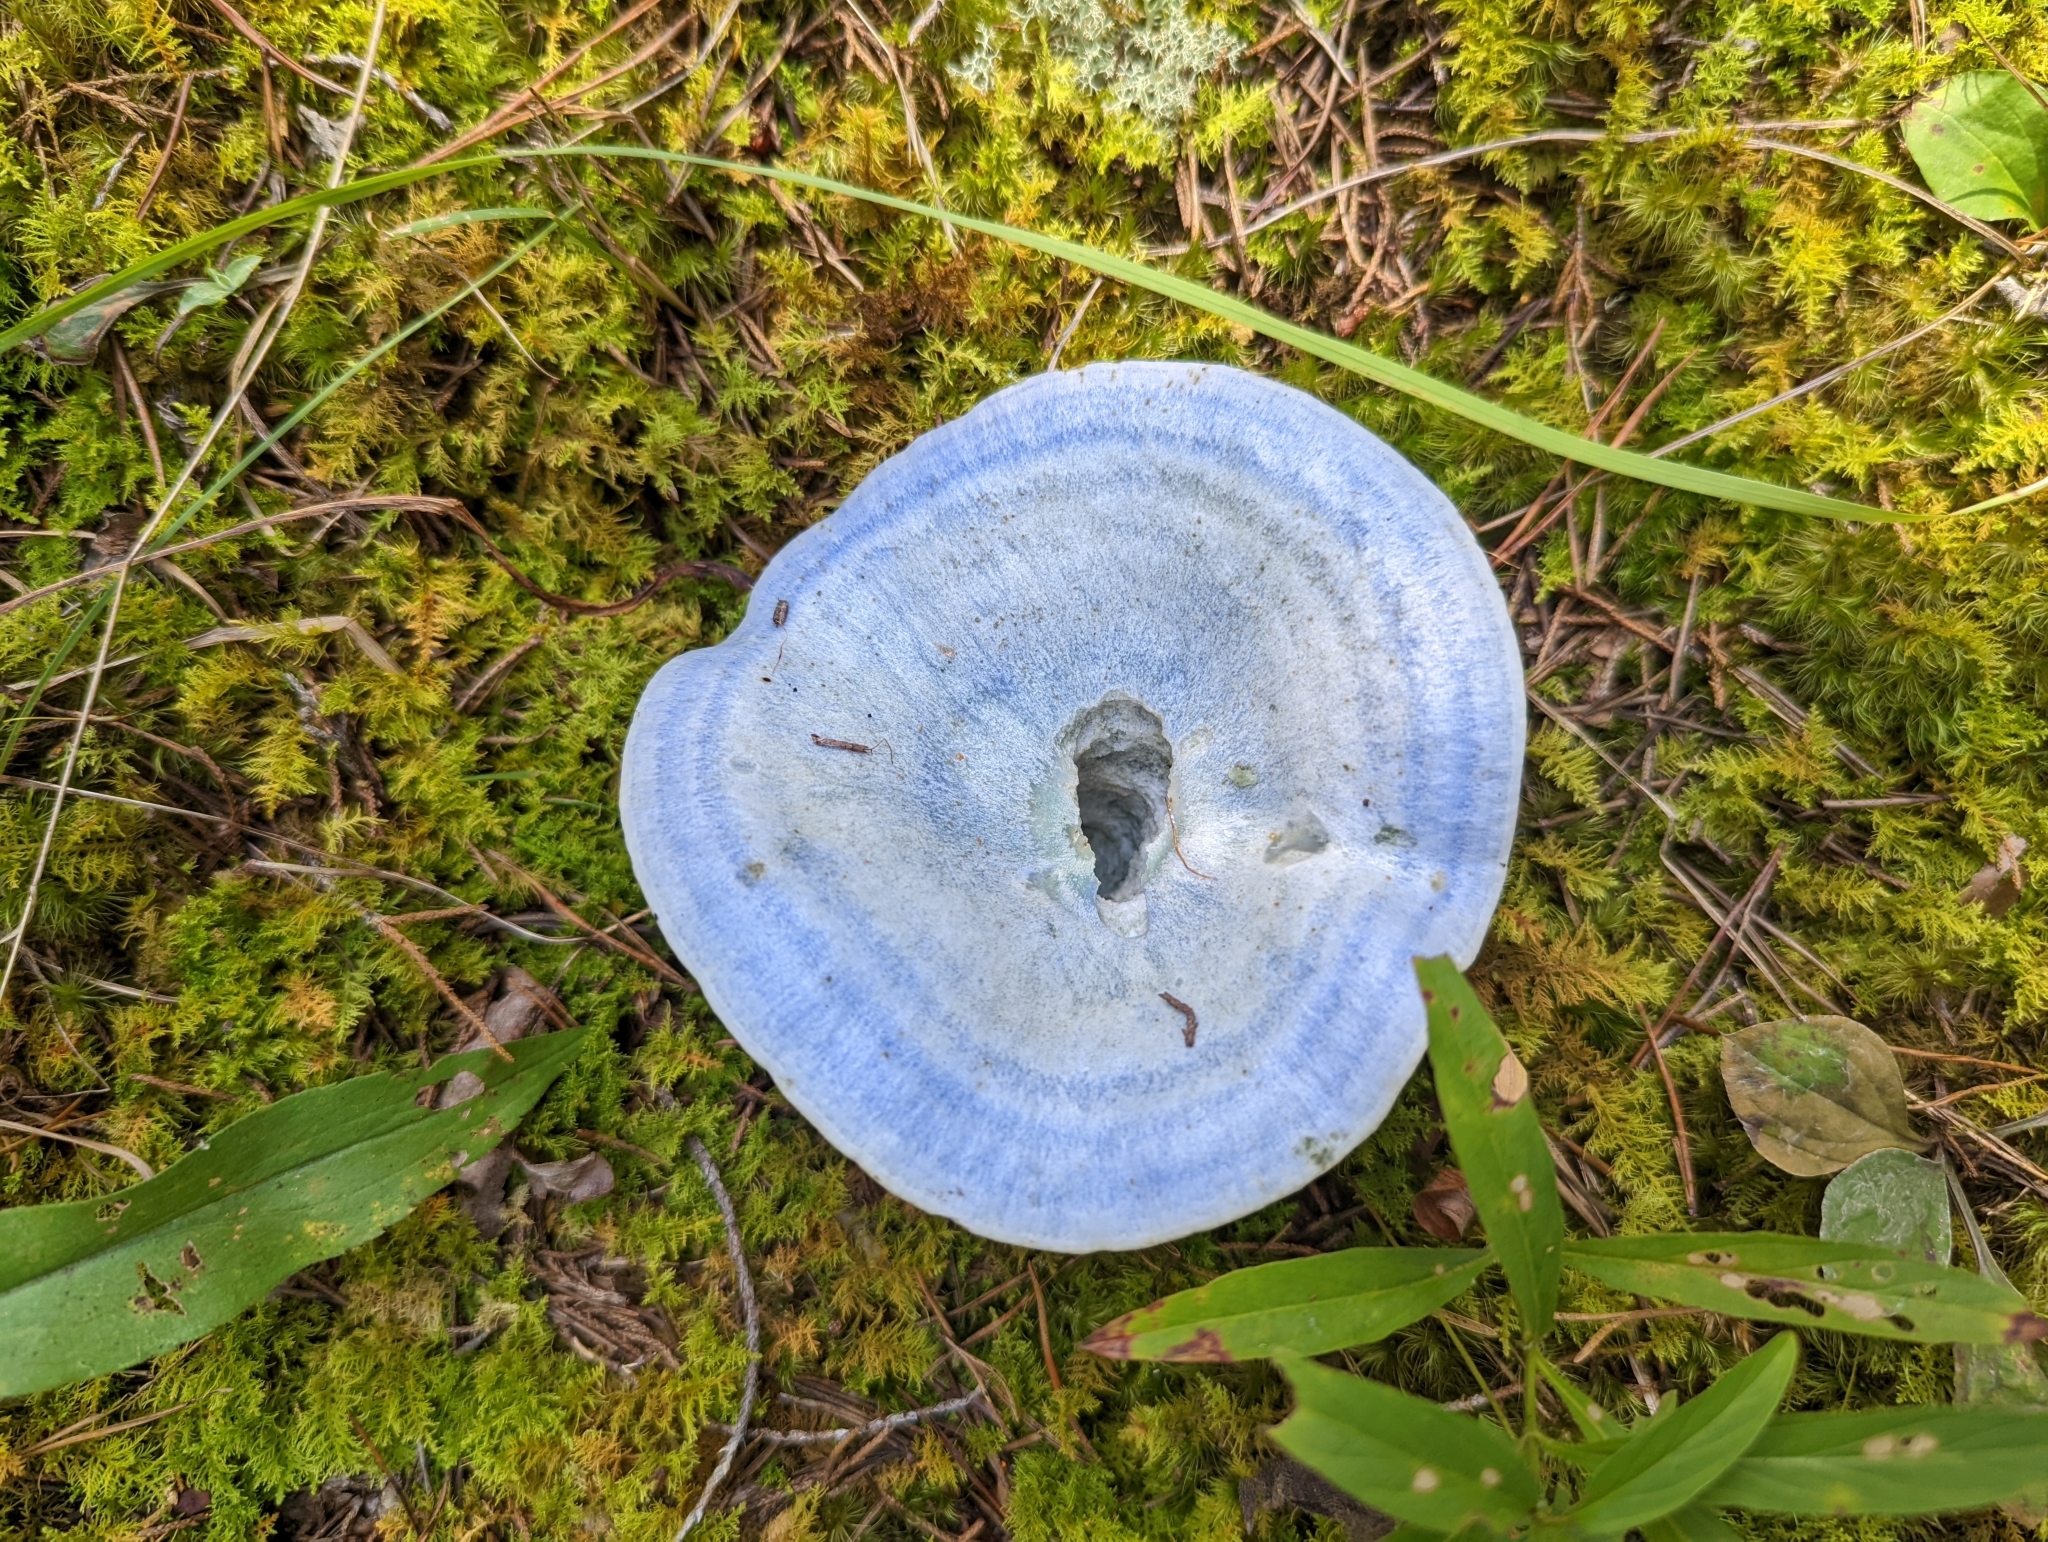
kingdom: Fungi
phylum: Basidiomycota
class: Agaricomycetes
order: Russulales
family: Russulaceae
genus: Lactarius
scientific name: Lactarius indigo
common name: Indigo milk cap
